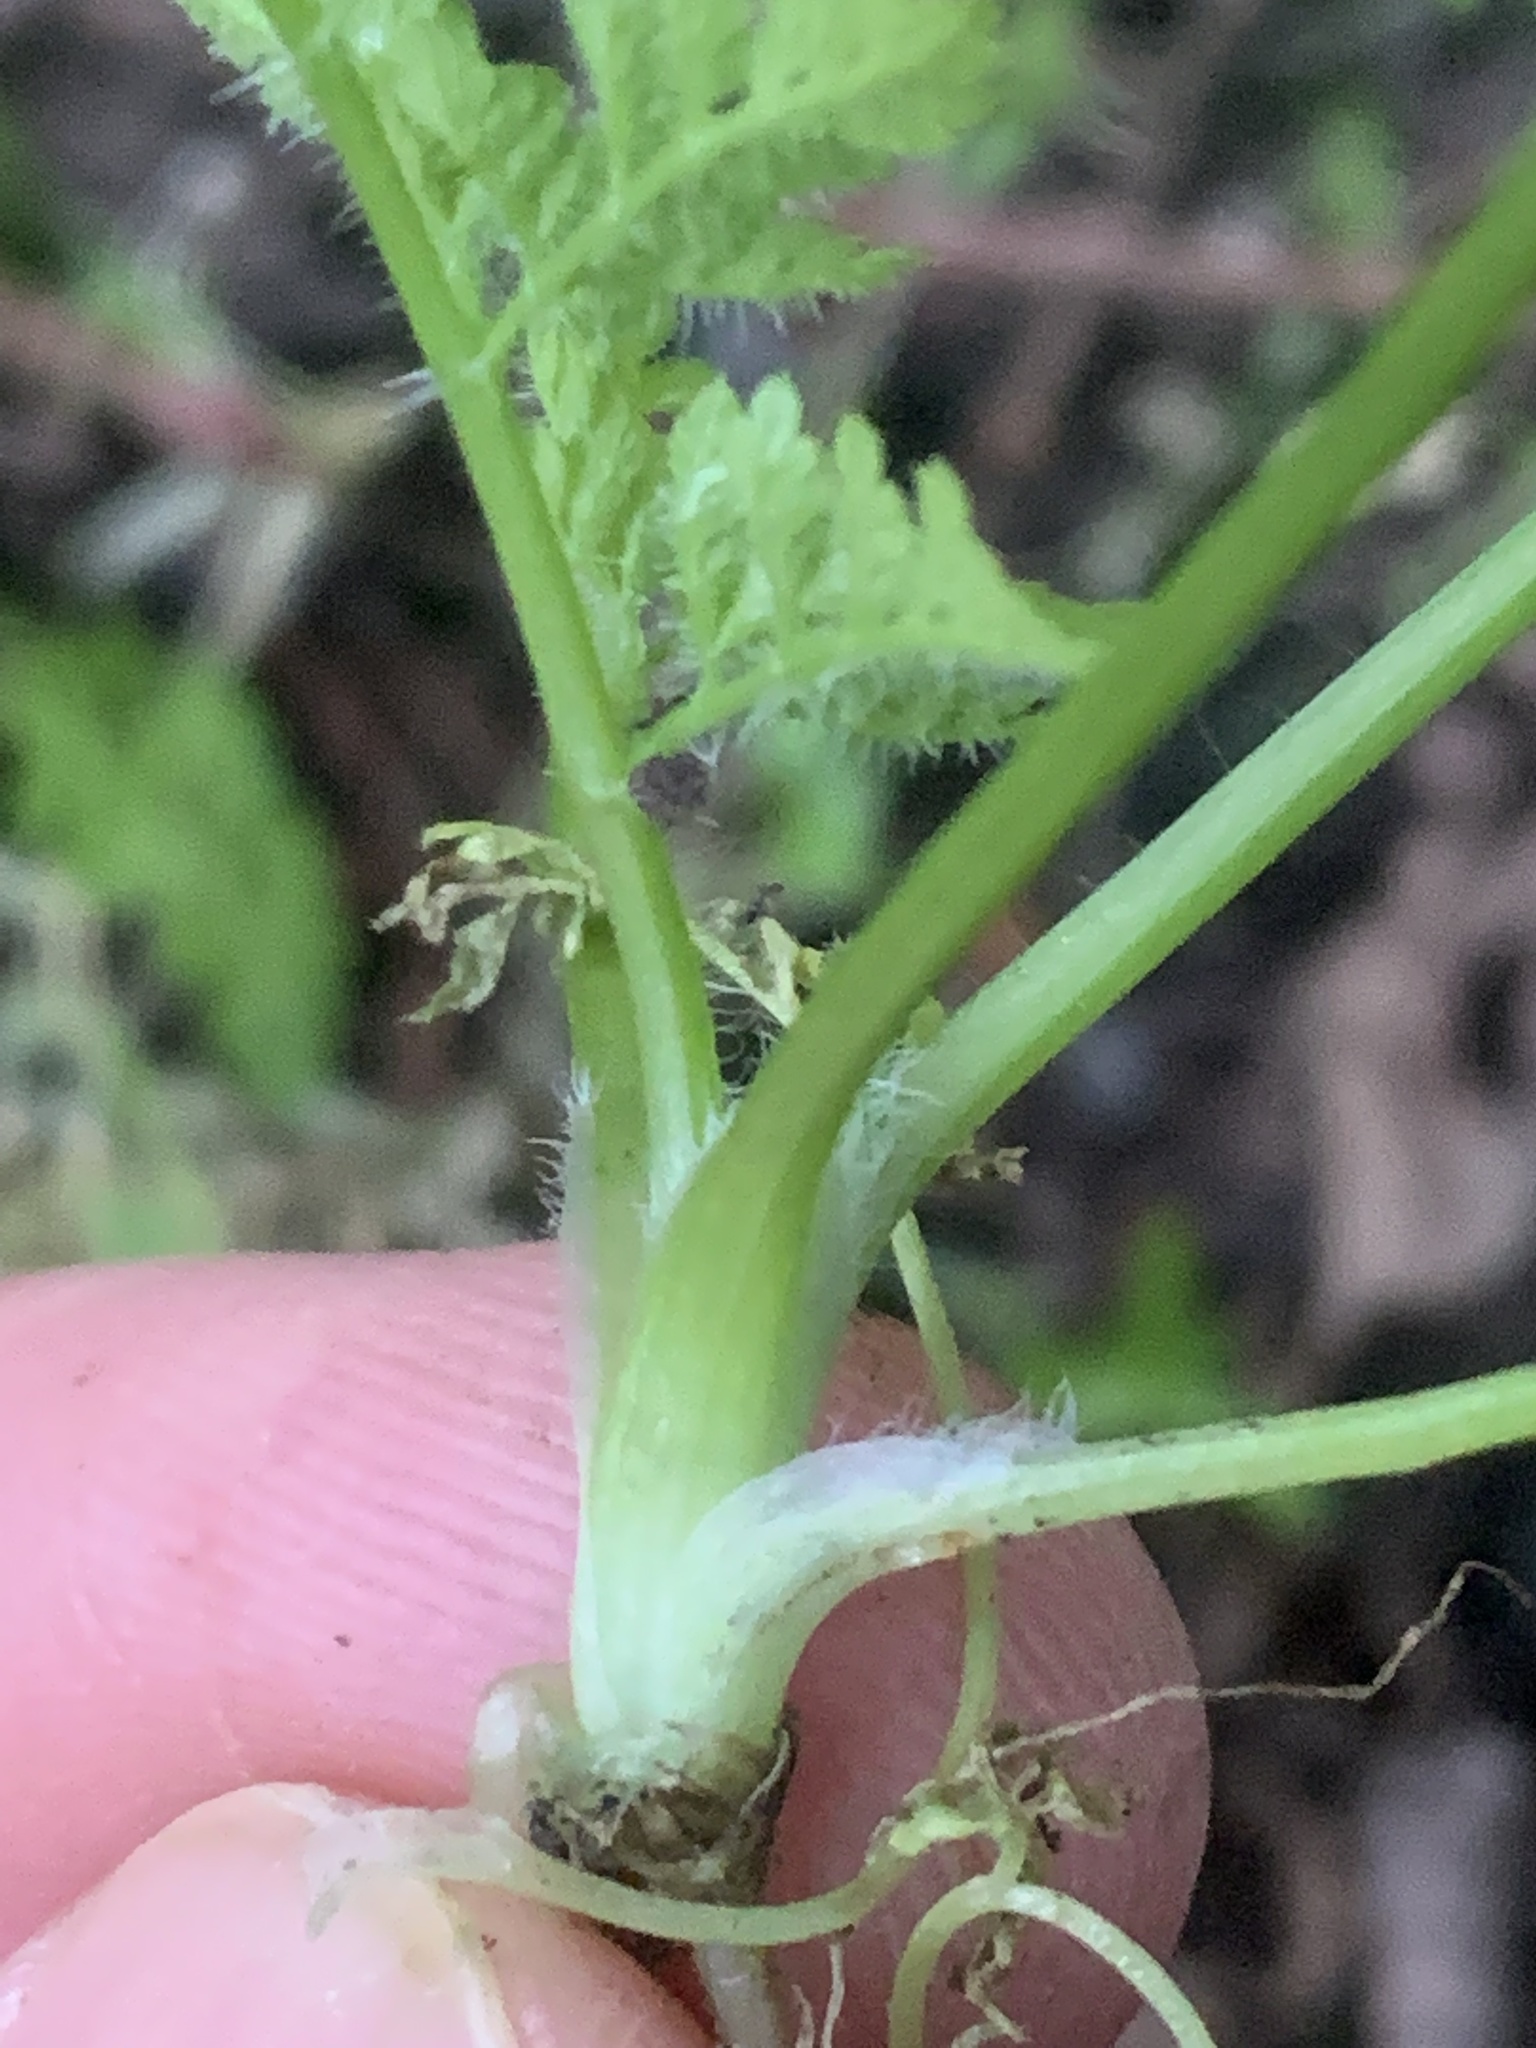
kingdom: Plantae
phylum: Tracheophyta
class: Magnoliopsida
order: Apiales
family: Apiaceae
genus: Anthriscus
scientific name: Anthriscus caucalis
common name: Bur chervil
